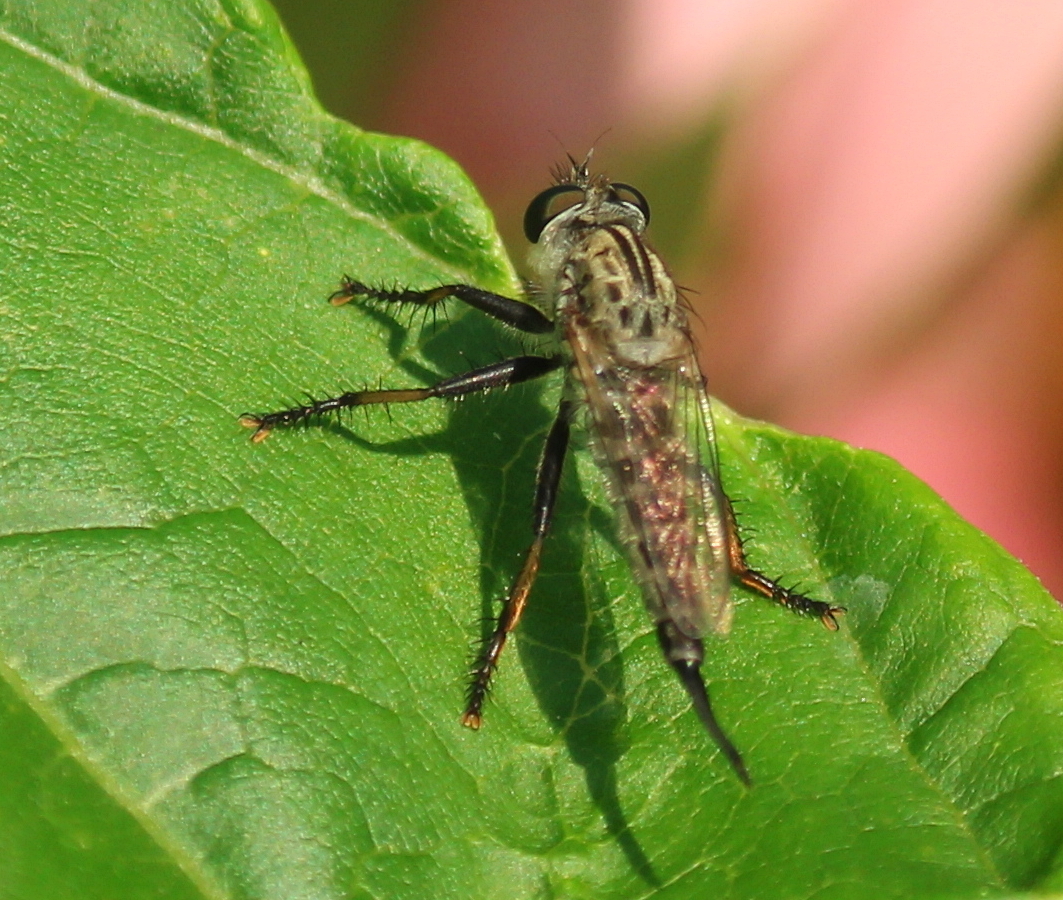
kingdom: Animalia
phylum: Arthropoda
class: Insecta
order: Diptera
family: Asilidae
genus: Efferia
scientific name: Efferia aestuans
